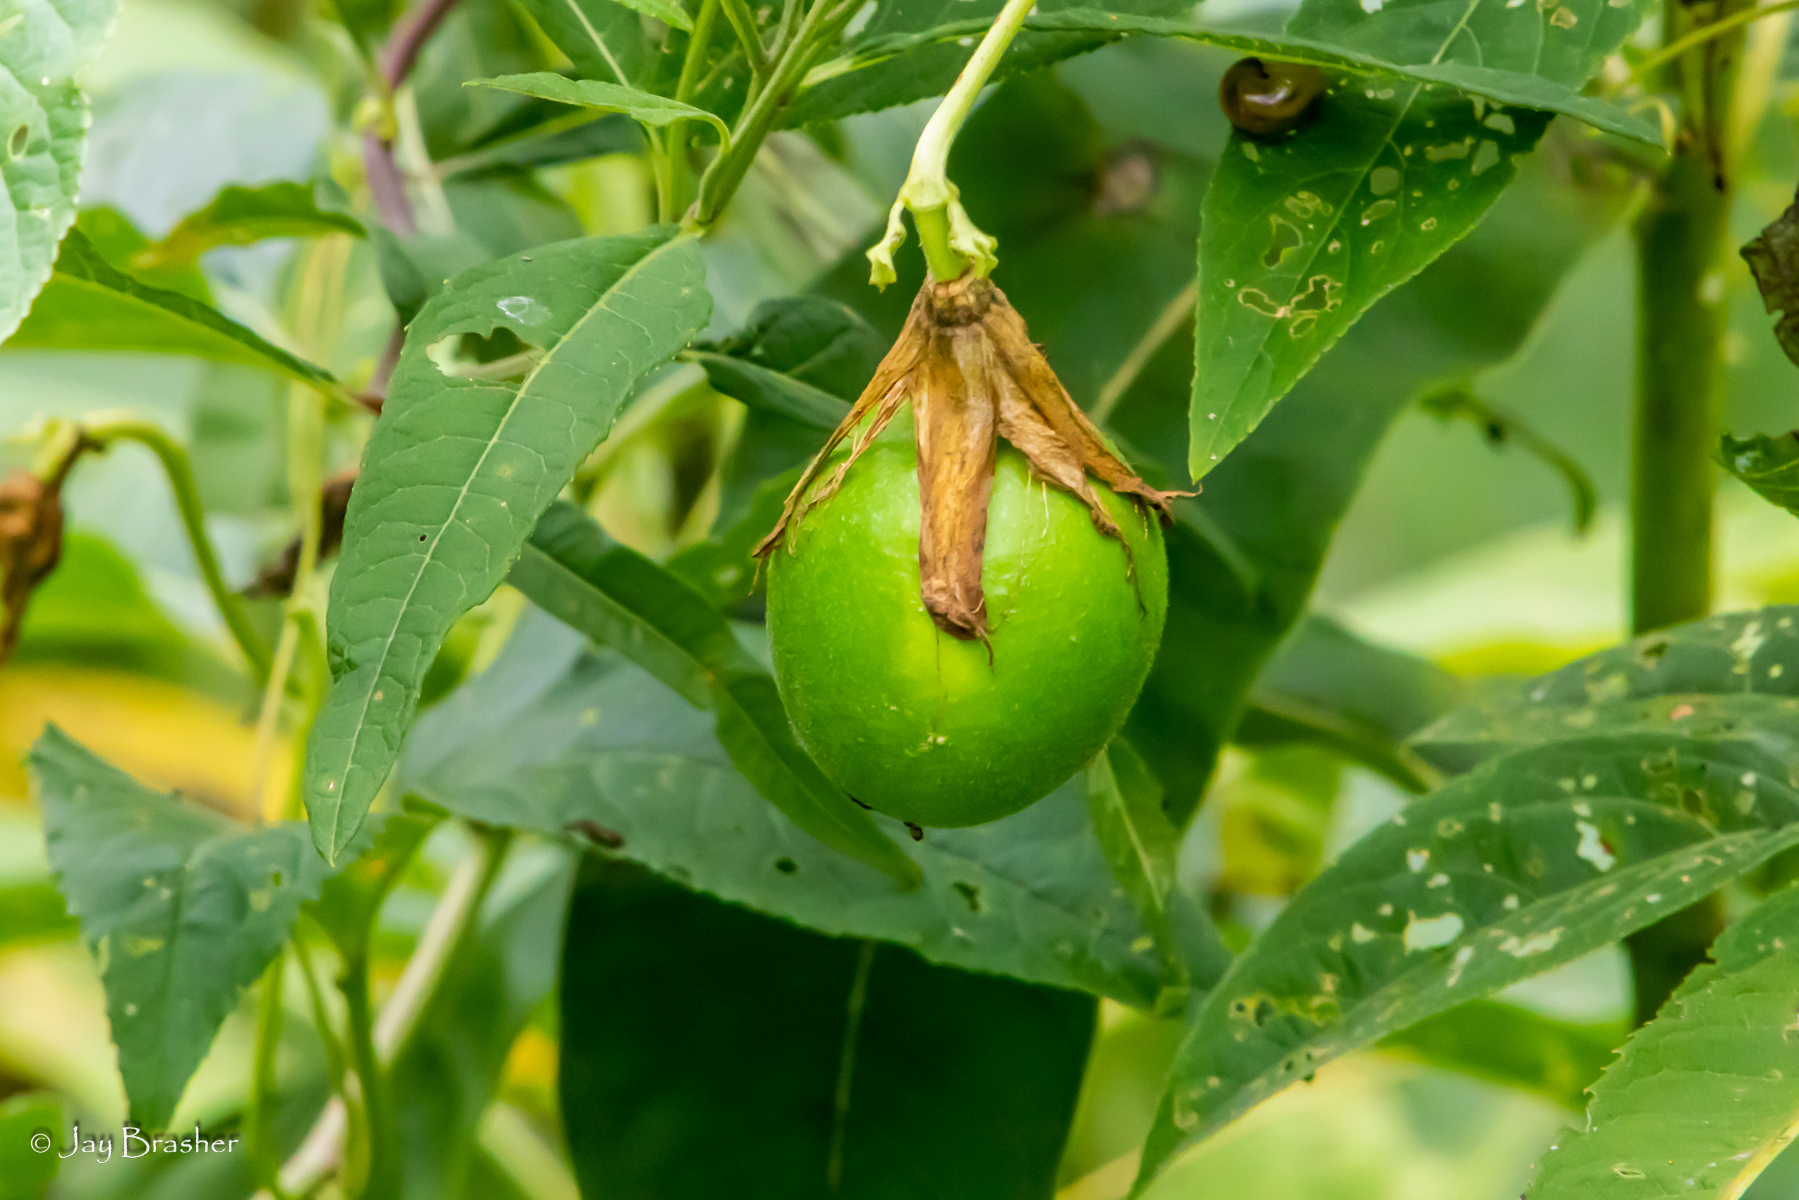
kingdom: Plantae
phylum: Tracheophyta
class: Magnoliopsida
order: Malpighiales
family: Passifloraceae
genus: Passiflora
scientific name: Passiflora incarnata
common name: Apricot-vine
